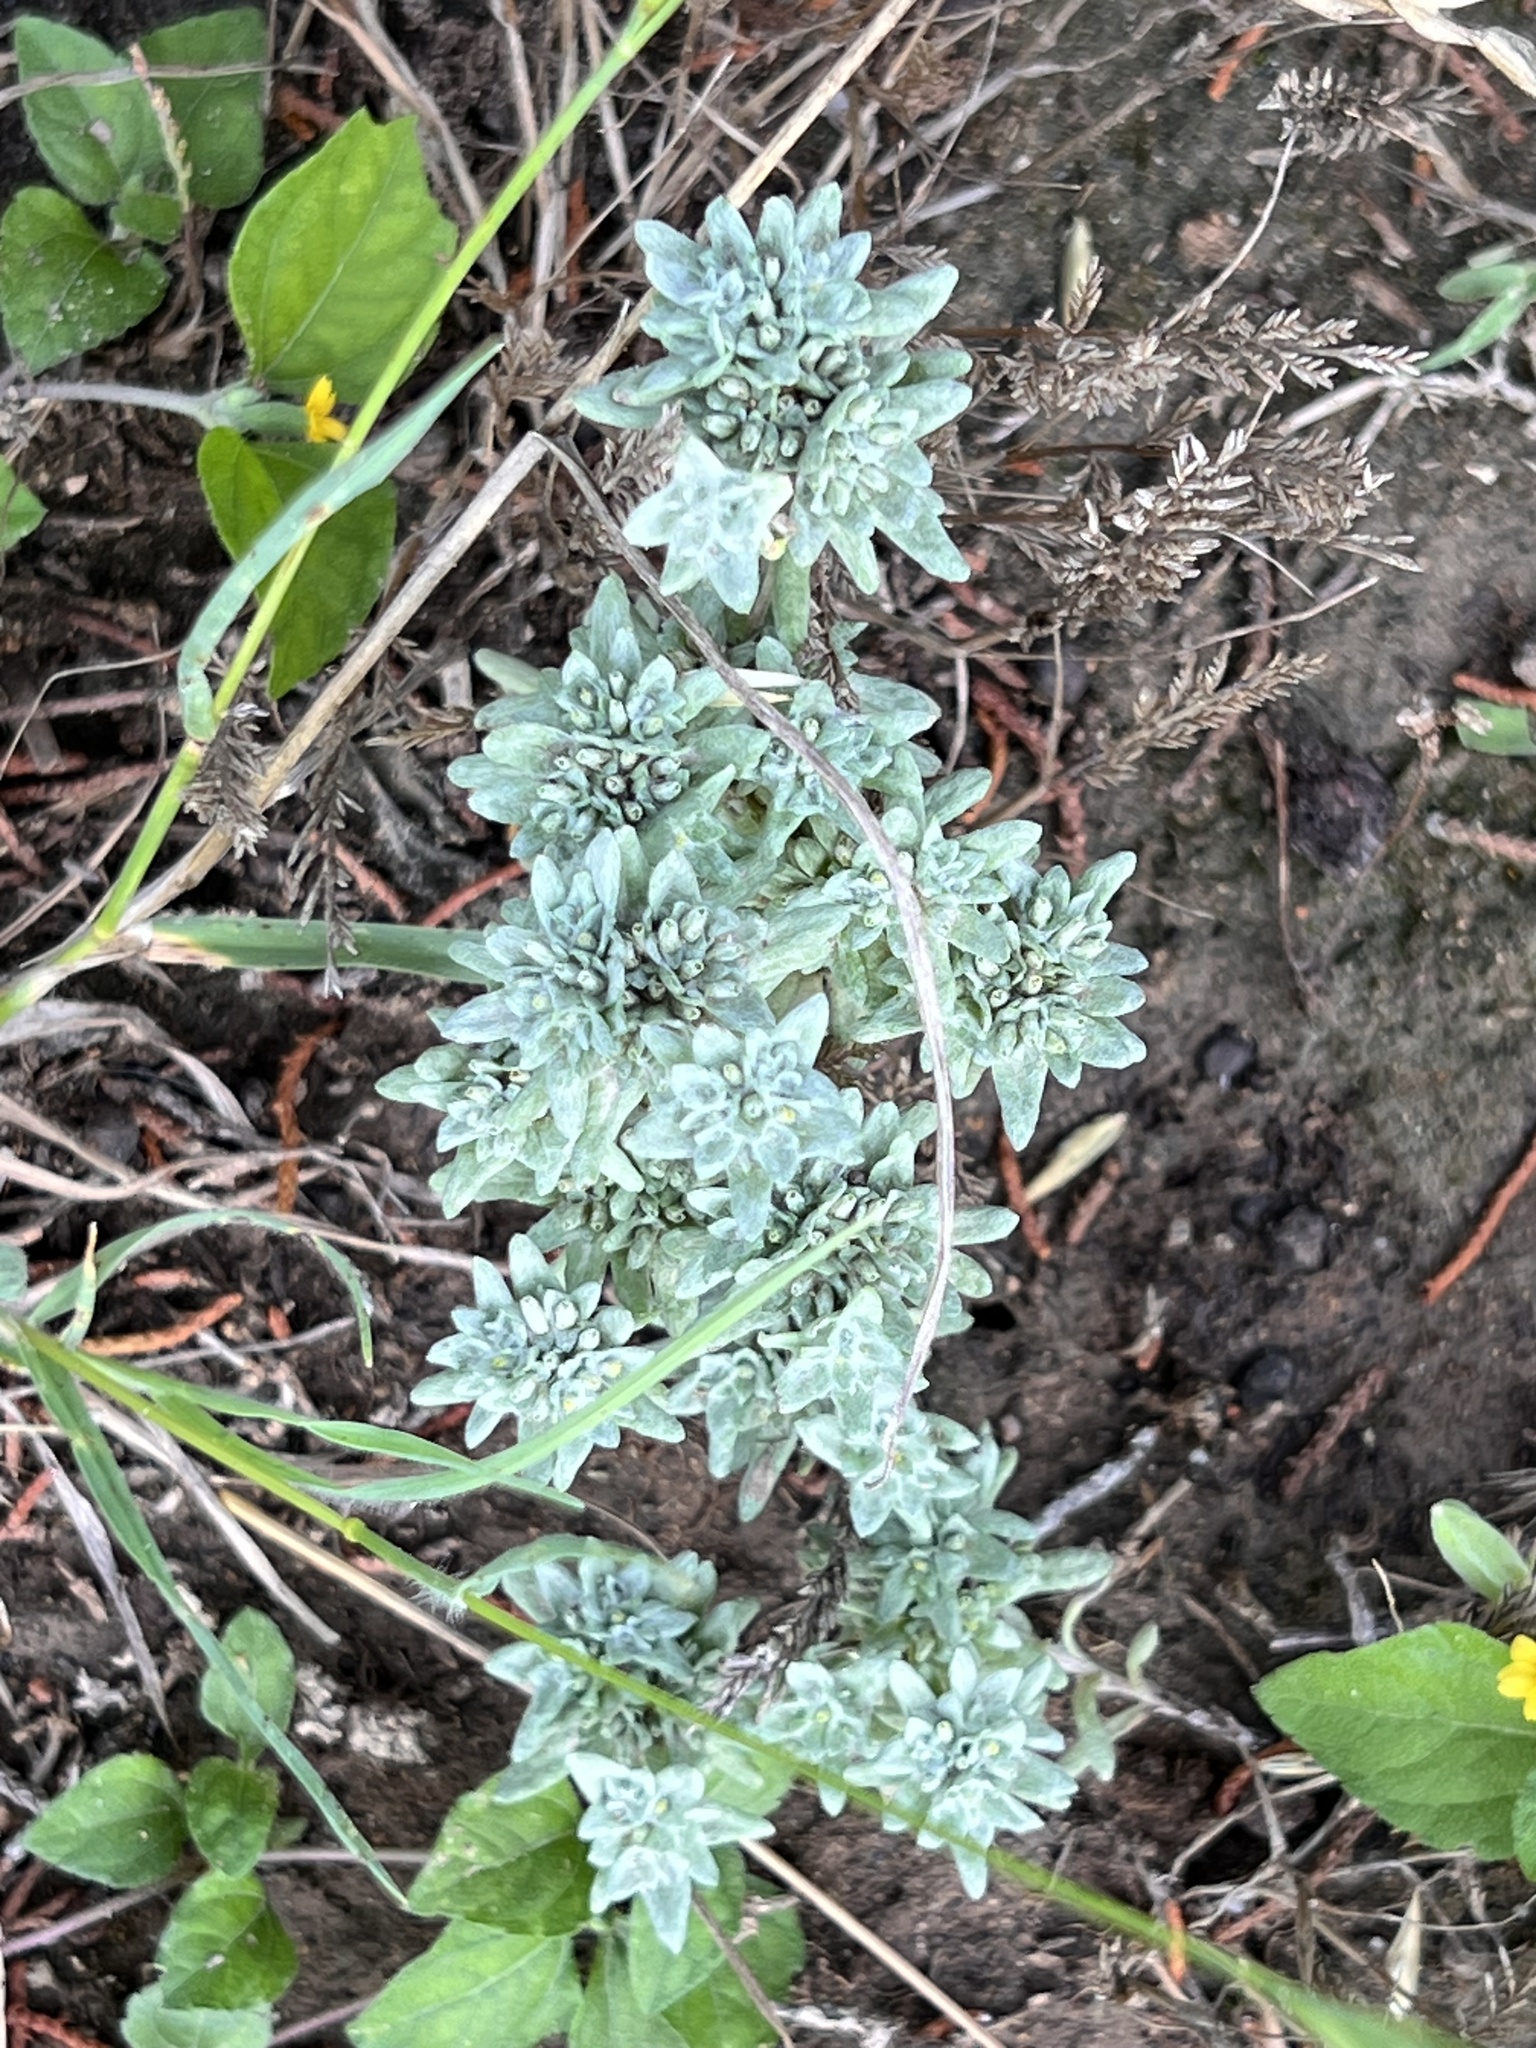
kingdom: Plantae
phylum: Tracheophyta
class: Magnoliopsida
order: Asterales
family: Asteraceae
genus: Diaperia
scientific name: Diaperia prolifera
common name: Big-head rabbit-tobacco
